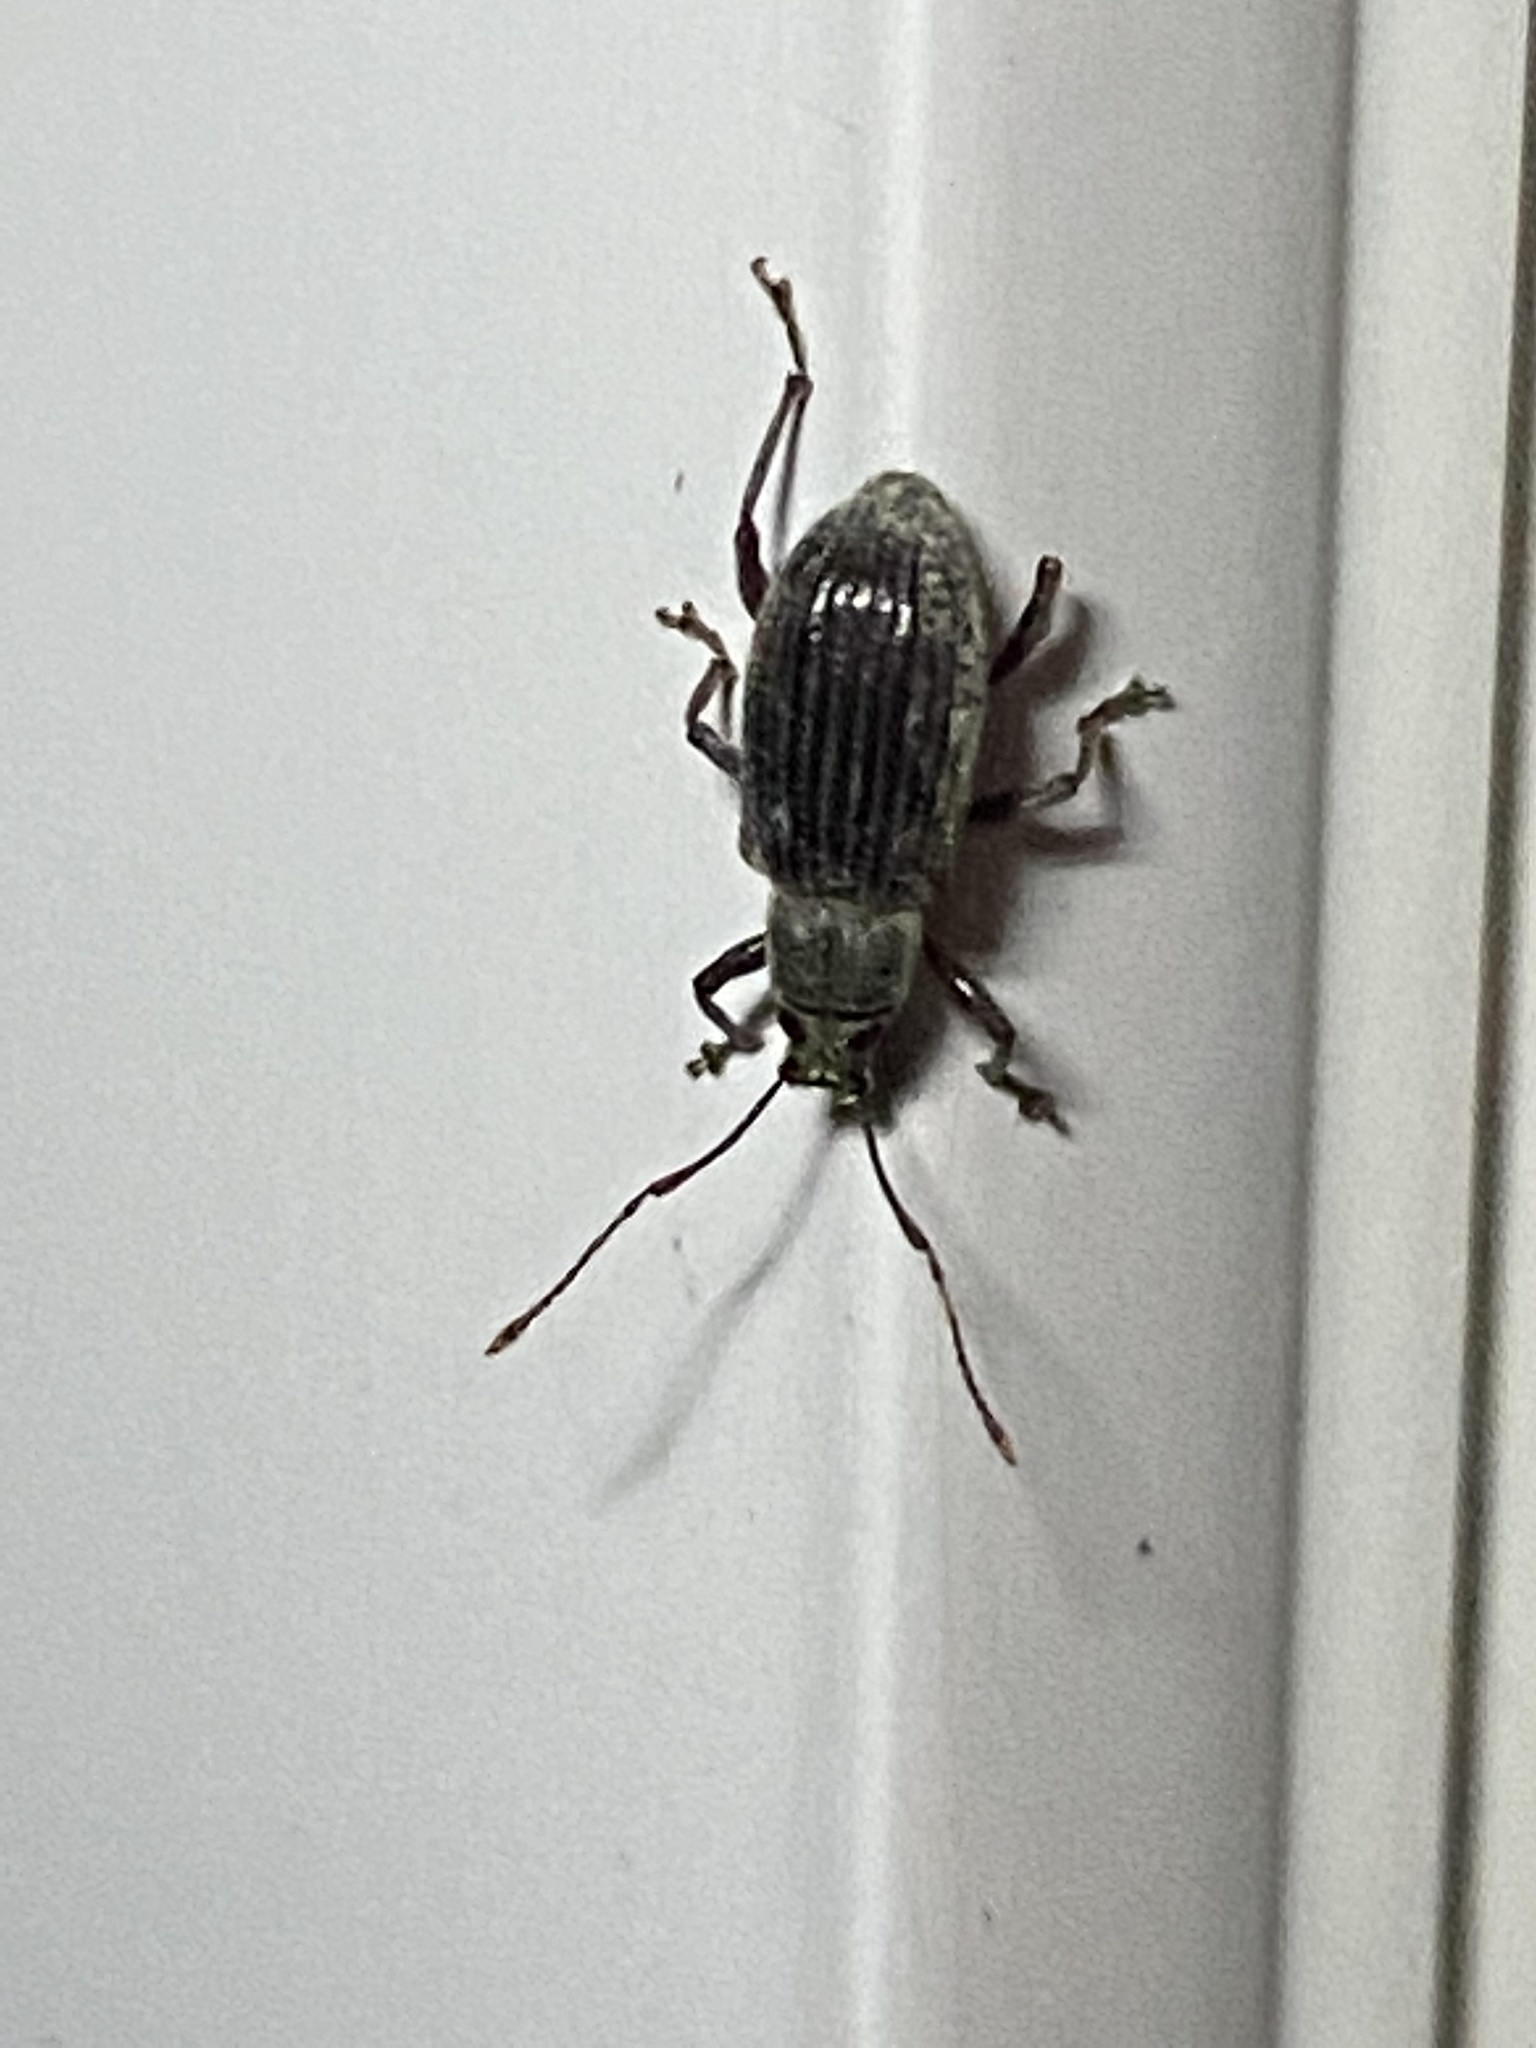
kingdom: Animalia
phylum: Arthropoda
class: Insecta
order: Coleoptera
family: Curculionidae
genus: Cyrtepistomus
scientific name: Cyrtepistomus castaneus
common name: Weevil
